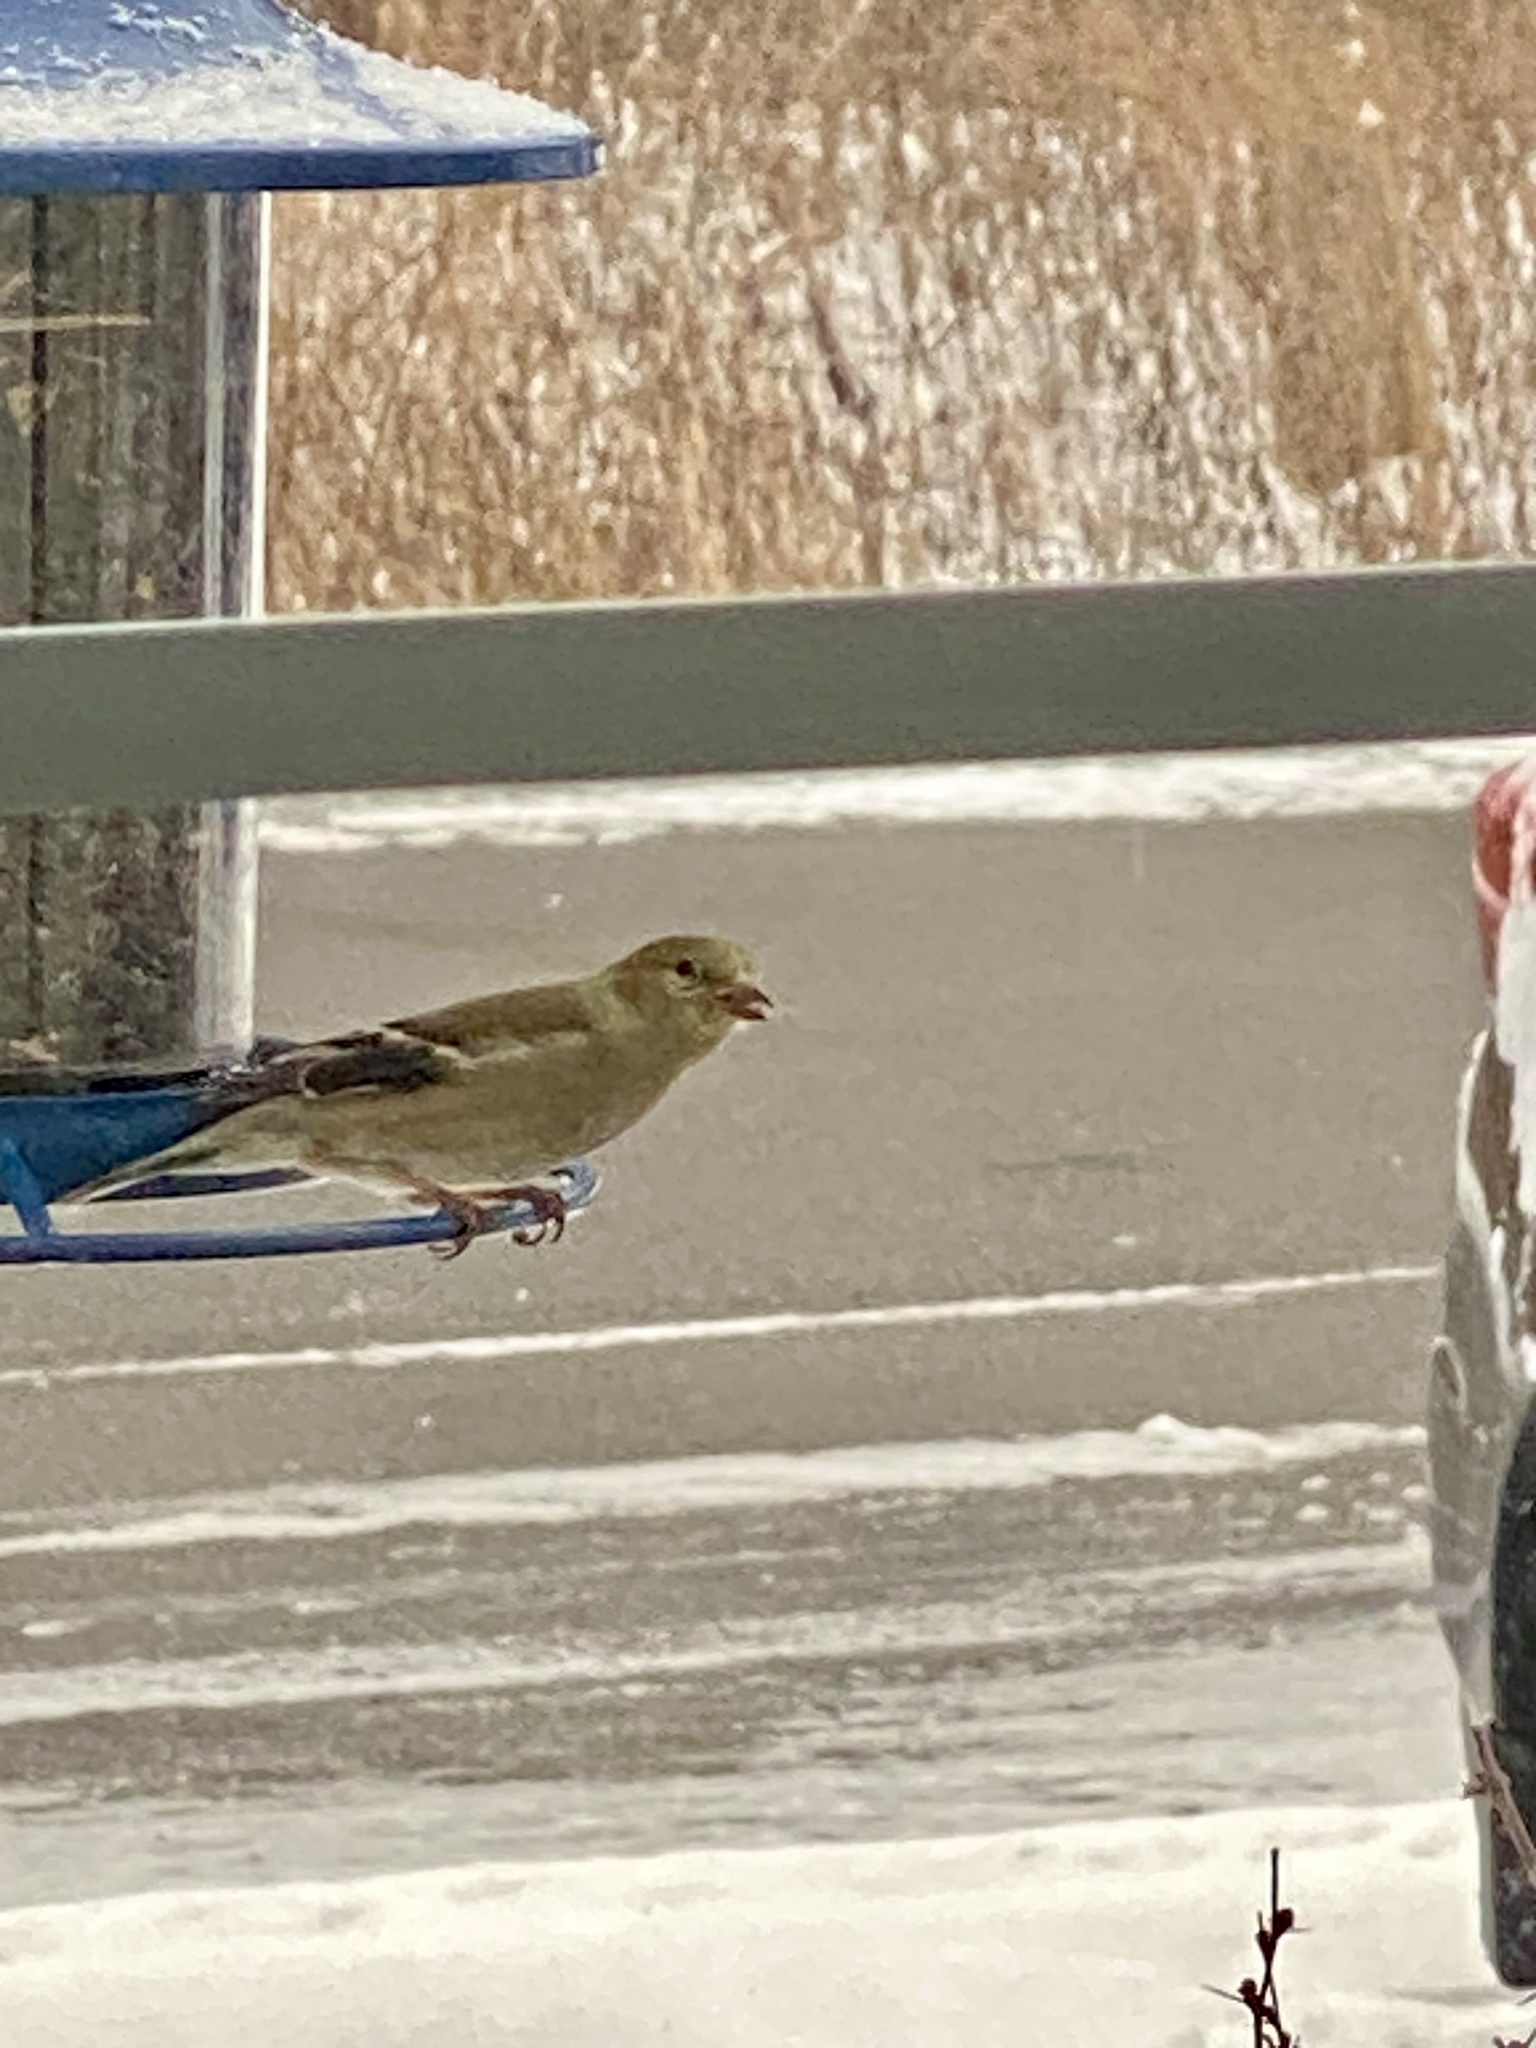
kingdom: Animalia
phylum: Chordata
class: Aves
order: Passeriformes
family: Fringillidae
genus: Spinus
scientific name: Spinus tristis
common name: American goldfinch
